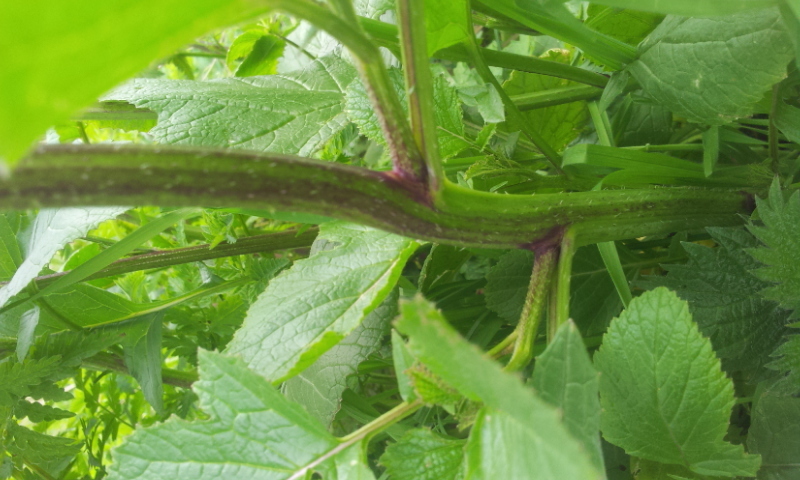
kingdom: Plantae
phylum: Tracheophyta
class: Magnoliopsida
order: Brassicales
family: Brassicaceae
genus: Sinapis
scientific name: Sinapis arvensis
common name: Charlock
